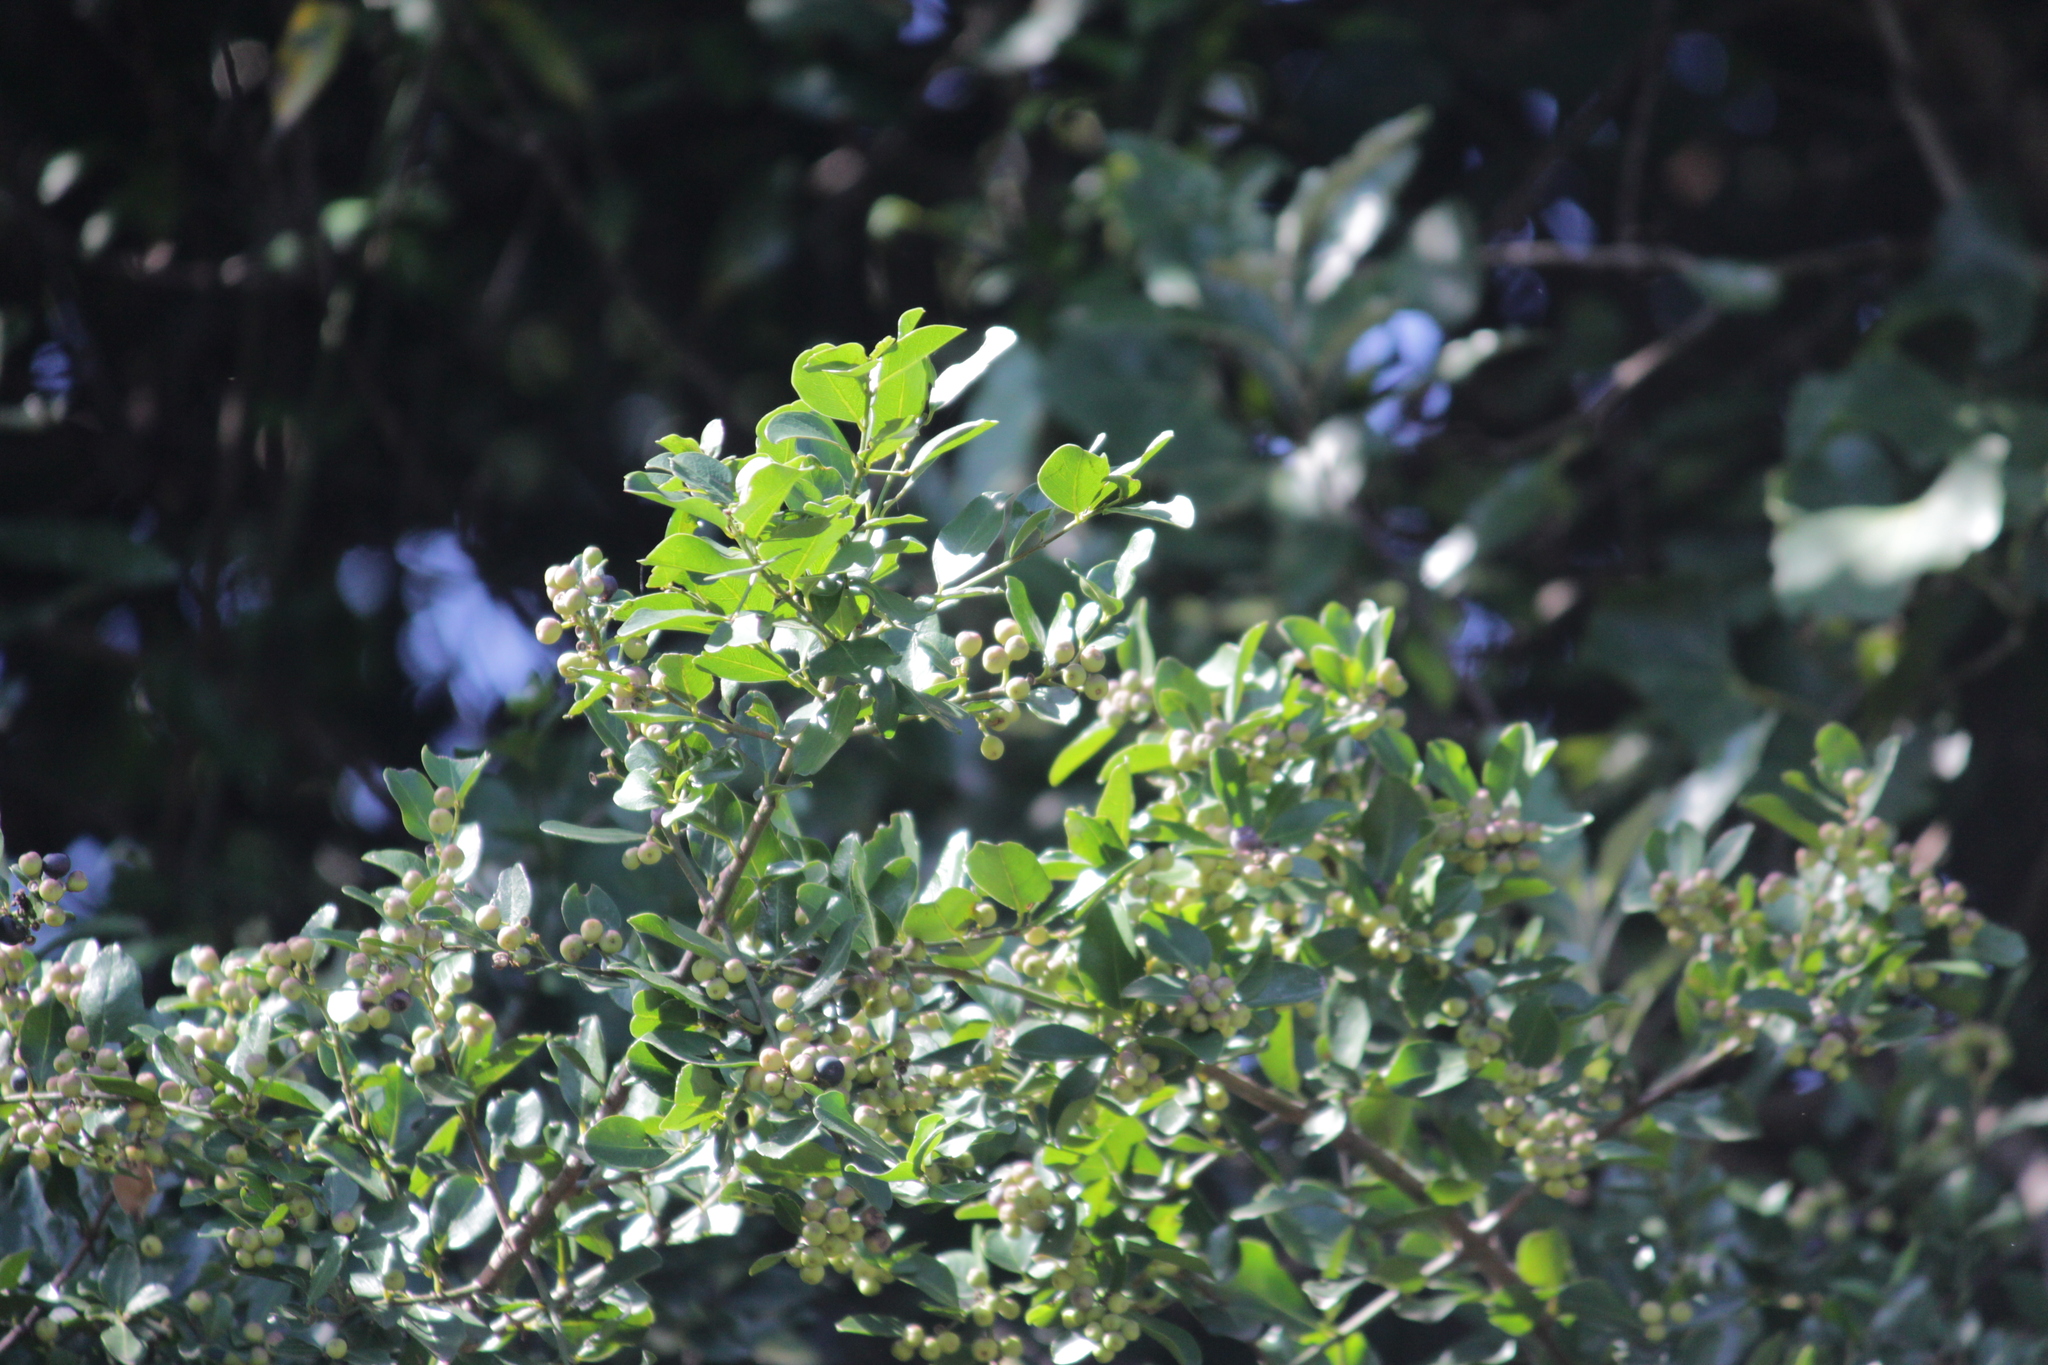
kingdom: Plantae
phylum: Tracheophyta
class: Magnoliopsida
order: Rosales
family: Rhamnaceae
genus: Scutia
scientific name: Scutia myrtina
